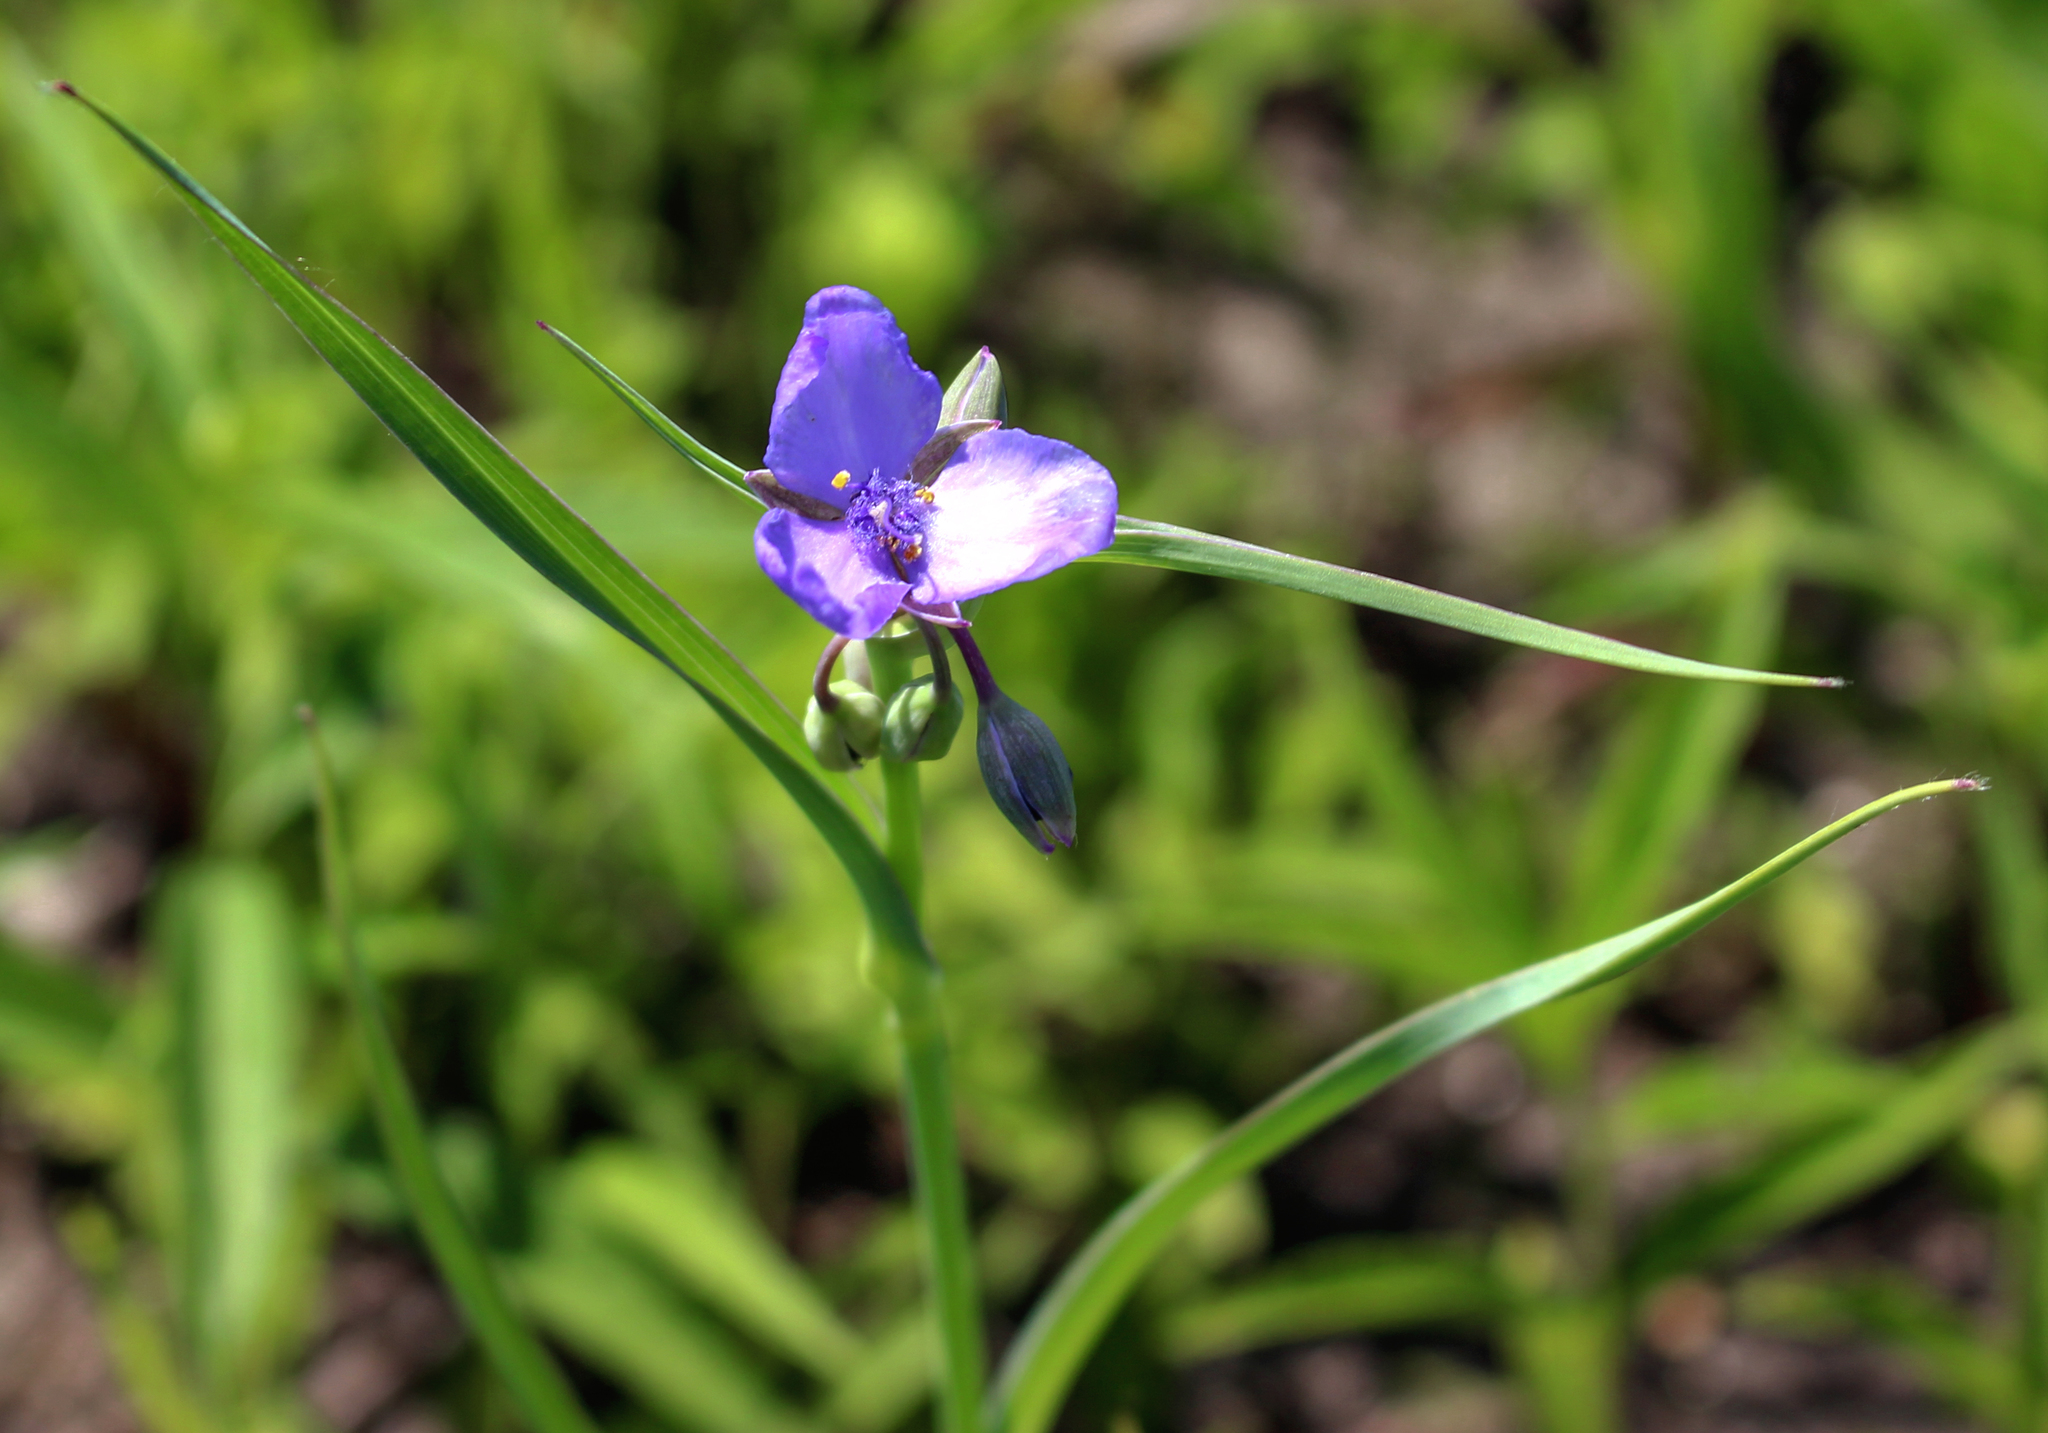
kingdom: Plantae
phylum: Tracheophyta
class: Liliopsida
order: Commelinales
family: Commelinaceae
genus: Tradescantia
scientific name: Tradescantia ohiensis
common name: Ohio spiderwort
